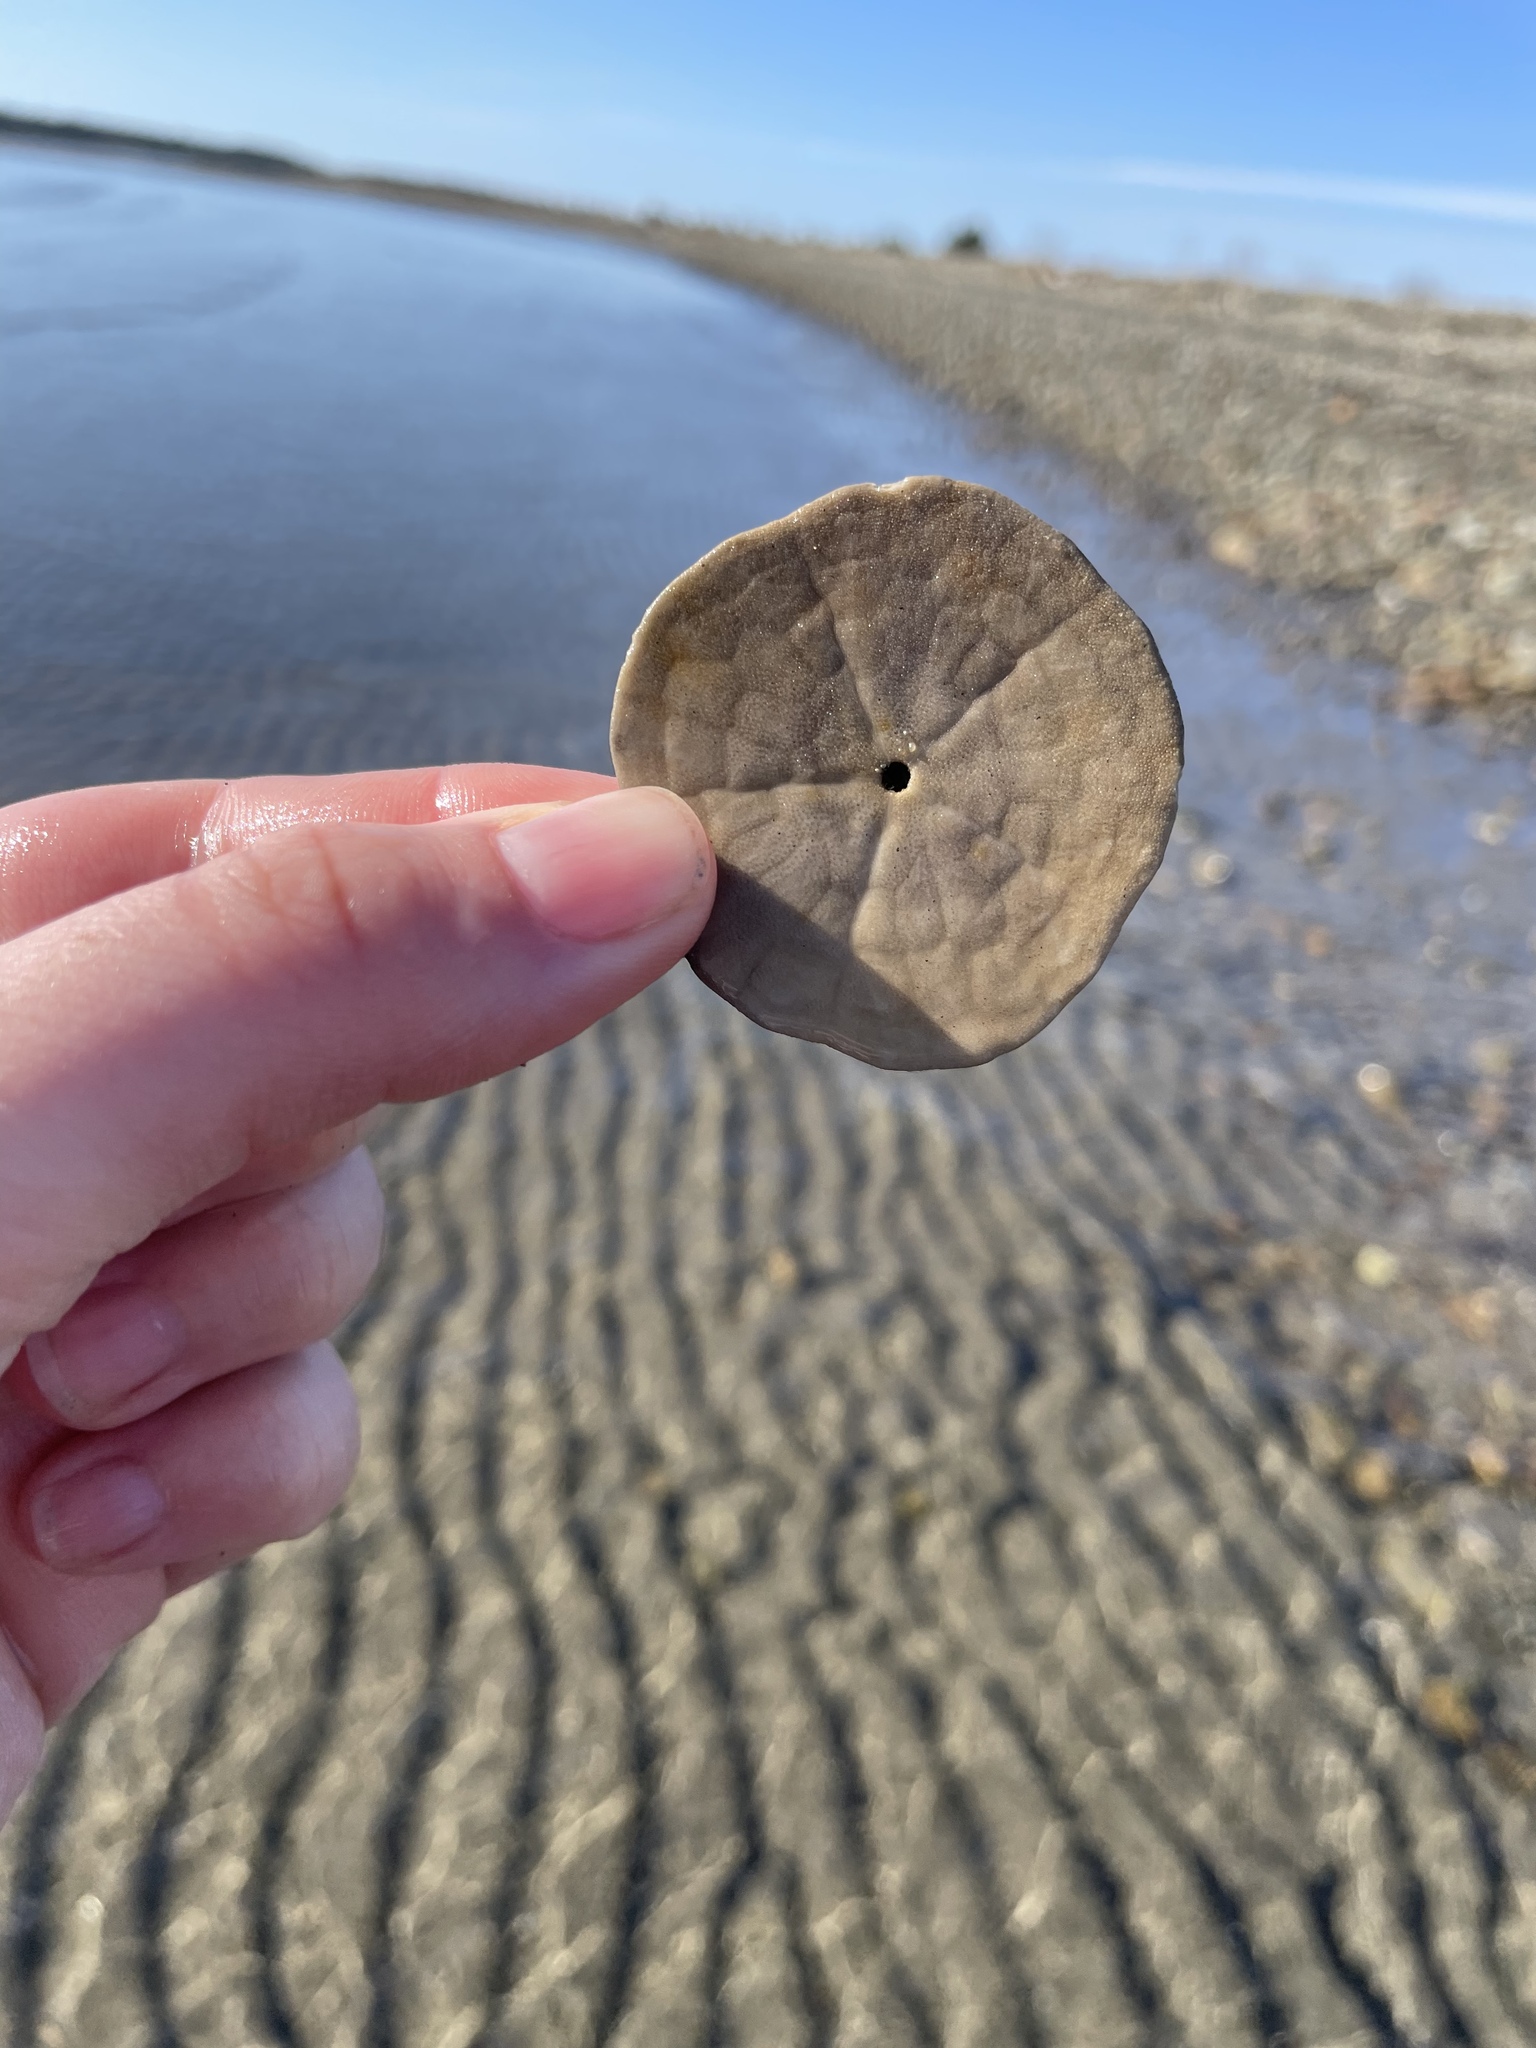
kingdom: Animalia
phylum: Echinodermata
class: Echinoidea
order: Echinolampadacea
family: Echinarachniidae
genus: Echinarachnius
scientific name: Echinarachnius parma
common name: Common sand dollar
